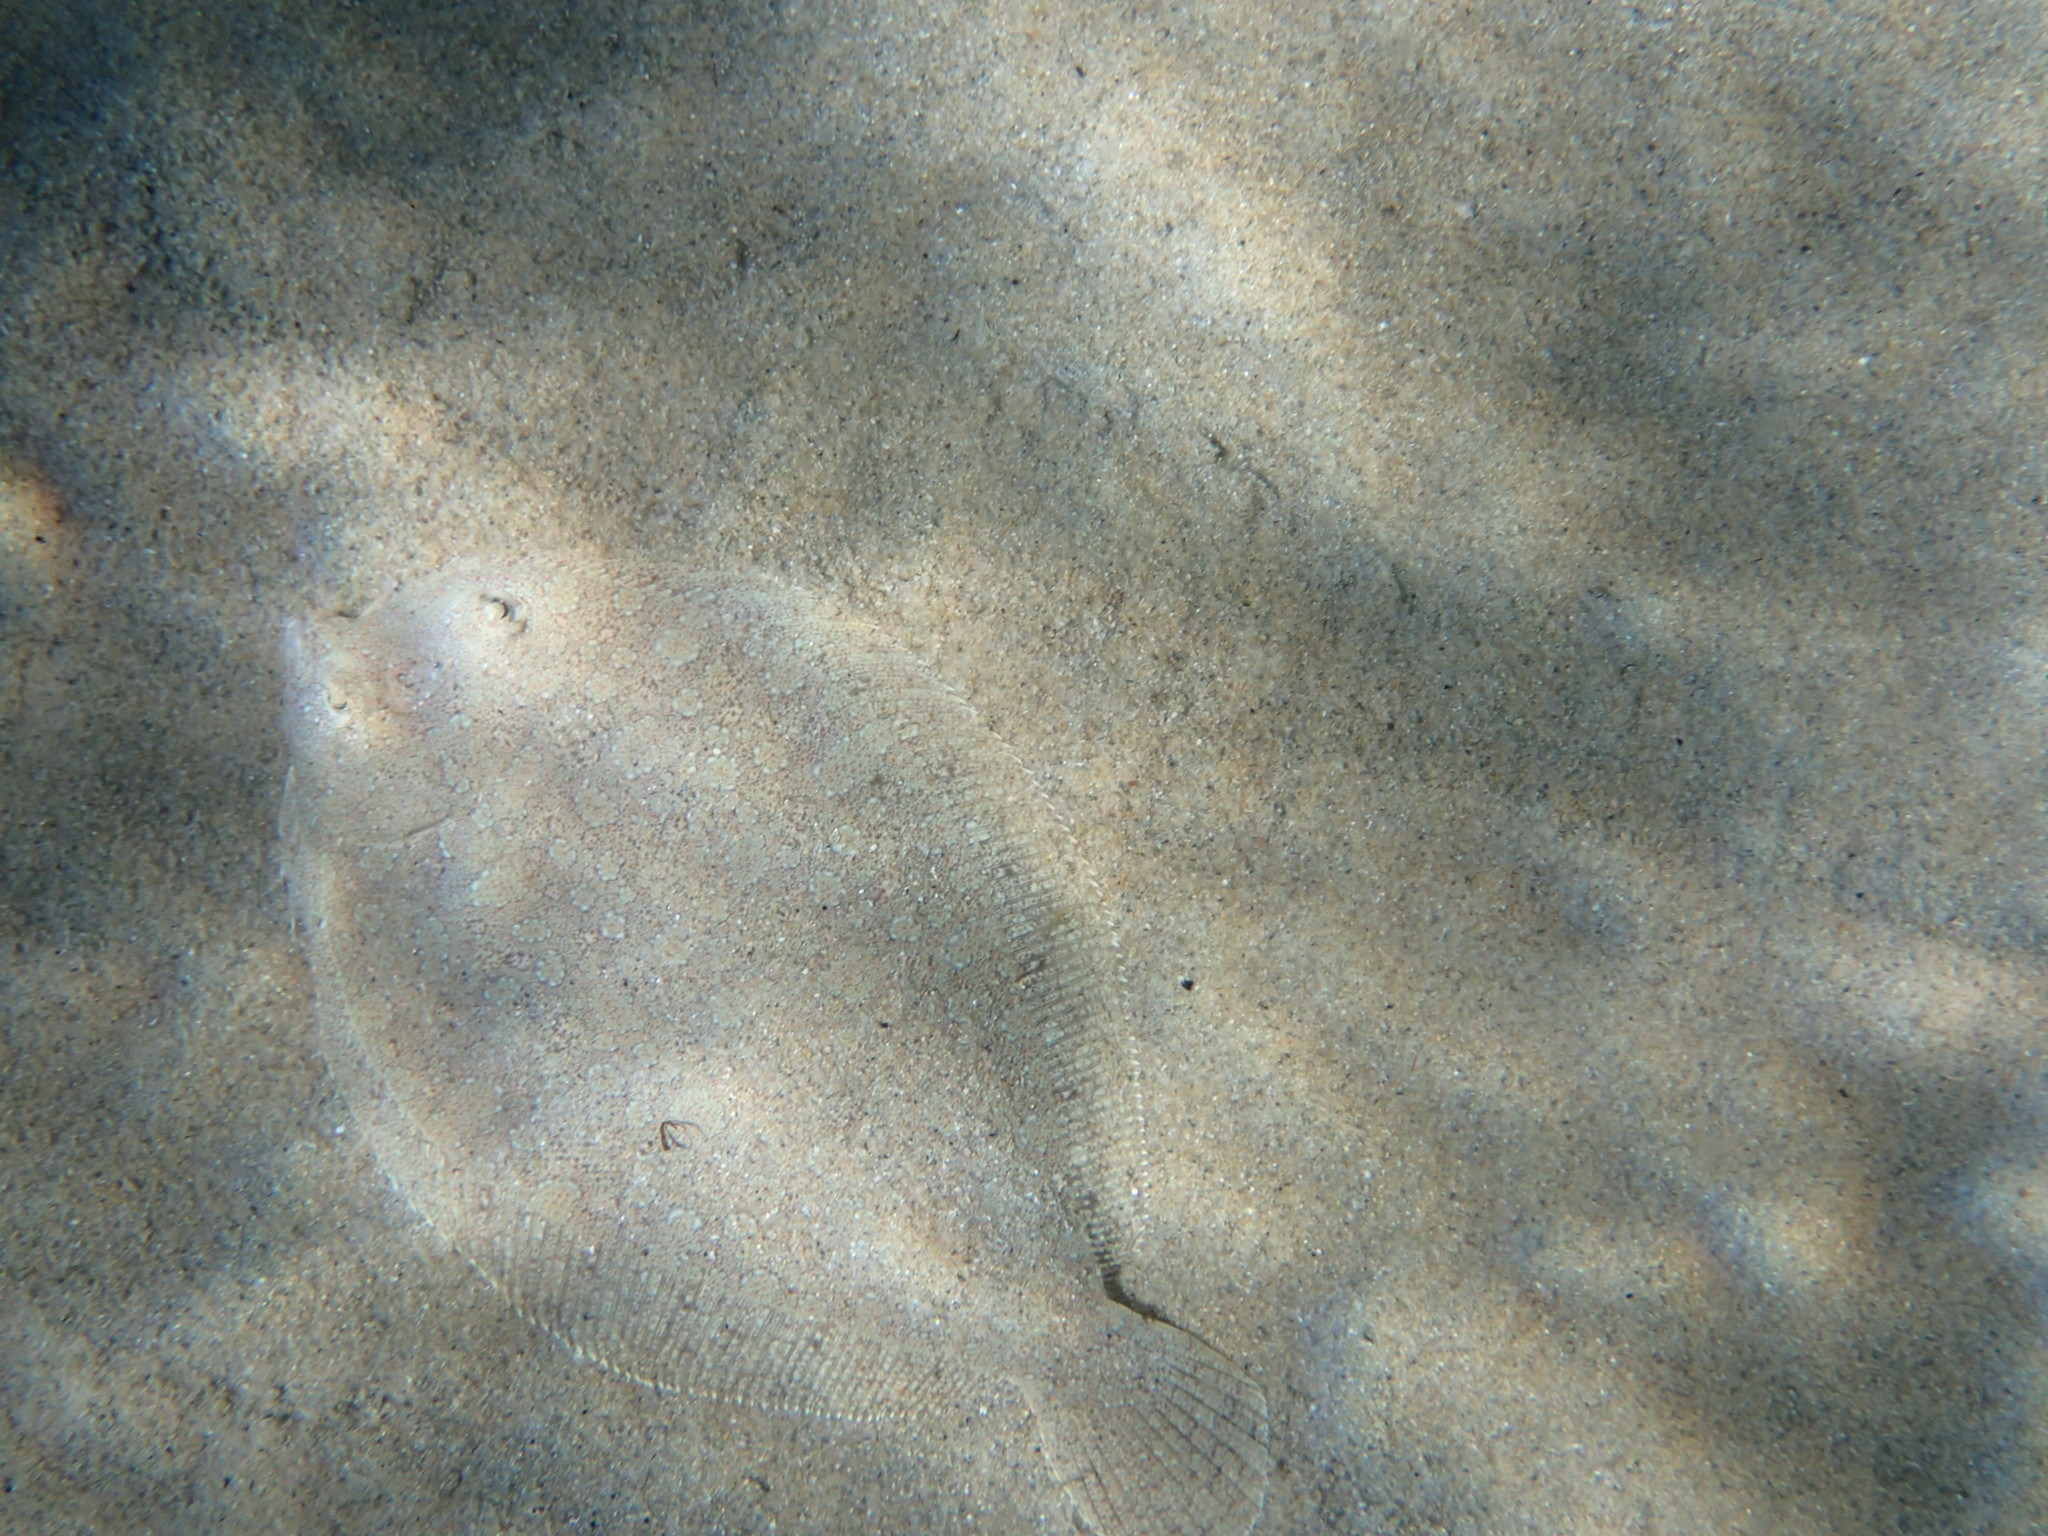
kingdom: Animalia
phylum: Chordata
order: Pleuronectiformes
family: Bothidae
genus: Bothus
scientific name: Bothus podas
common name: Wide-eyed flounder
